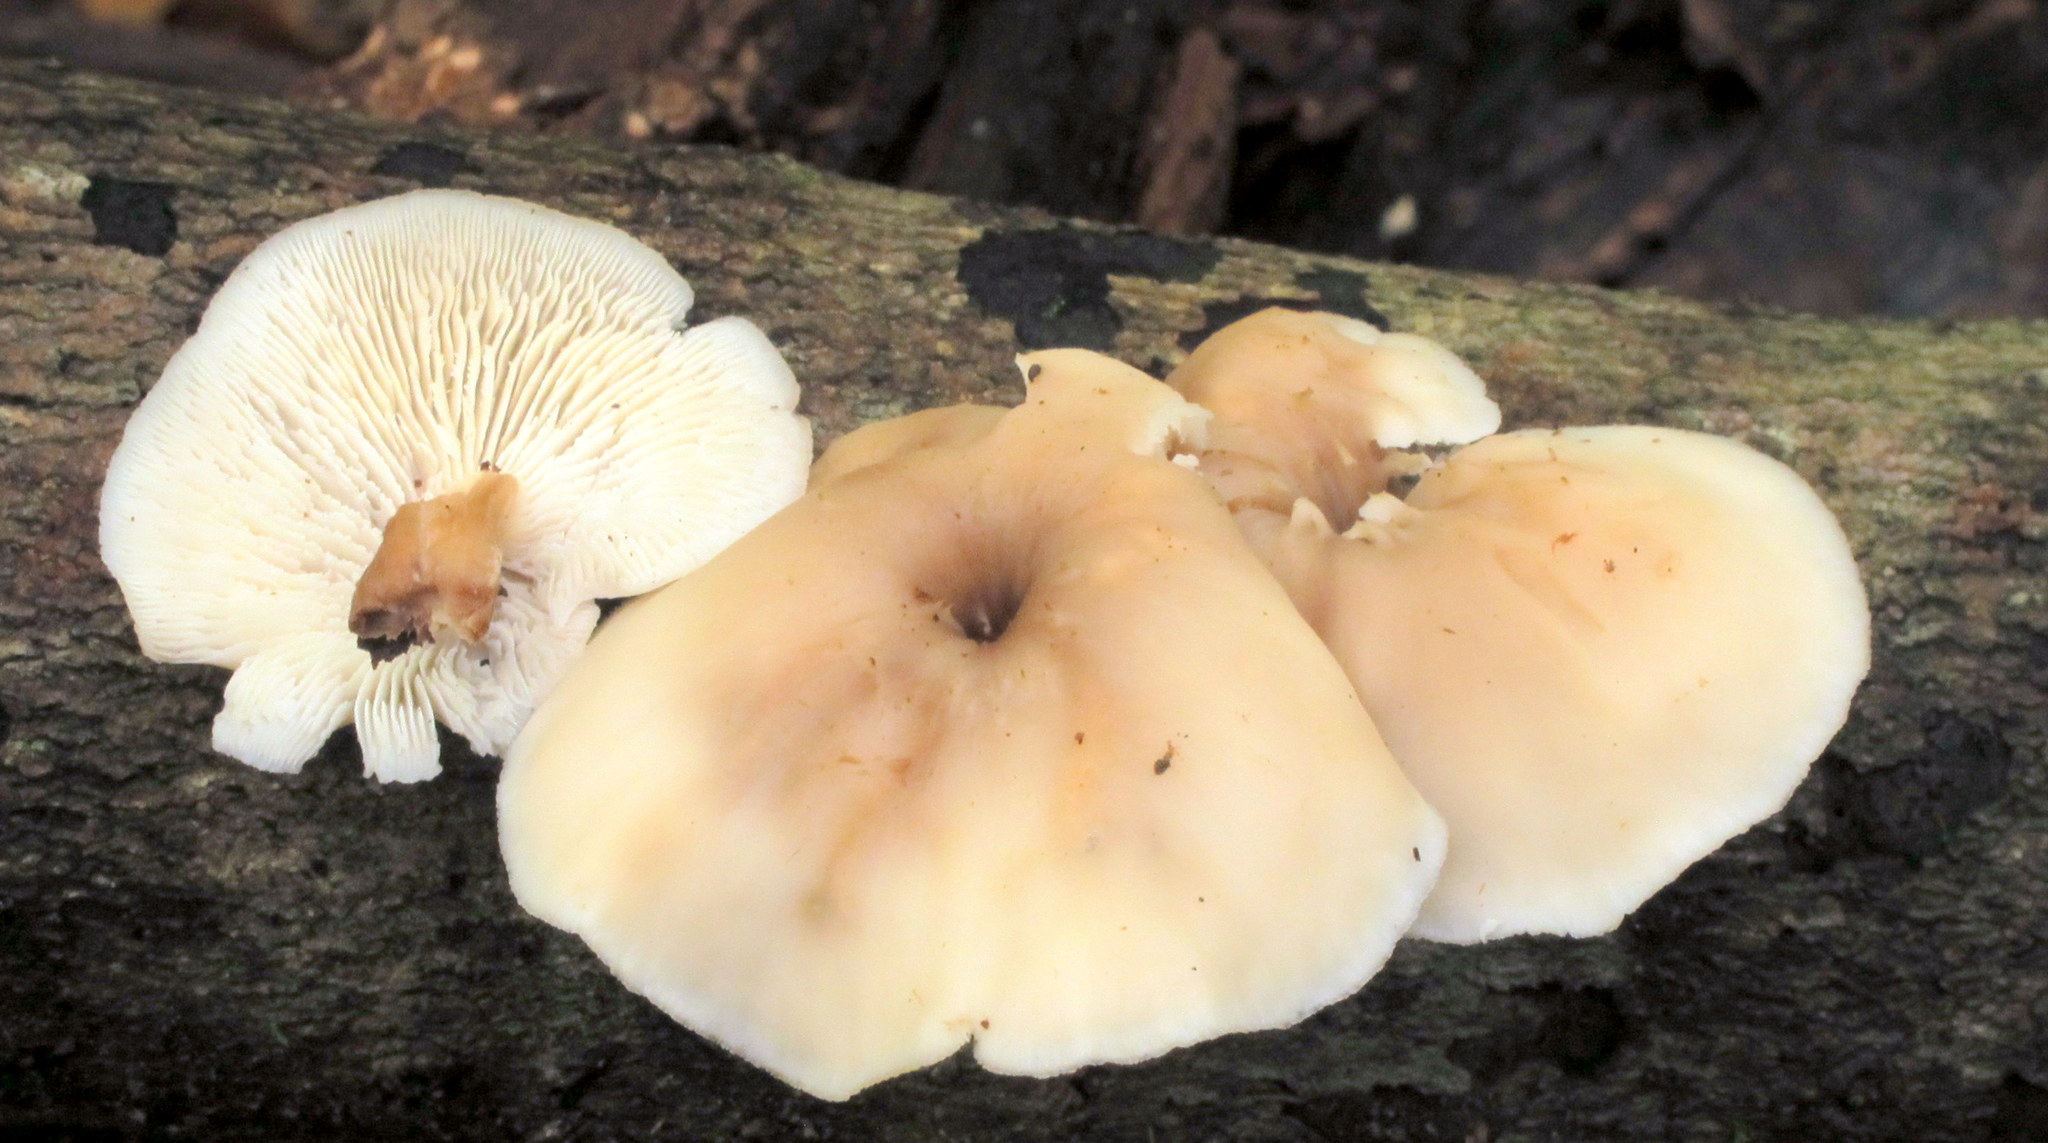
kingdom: Fungi
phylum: Basidiomycota
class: Agaricomycetes
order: Russulales
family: Auriscalpiaceae
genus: Lentinellus
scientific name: Lentinellus micheneri
